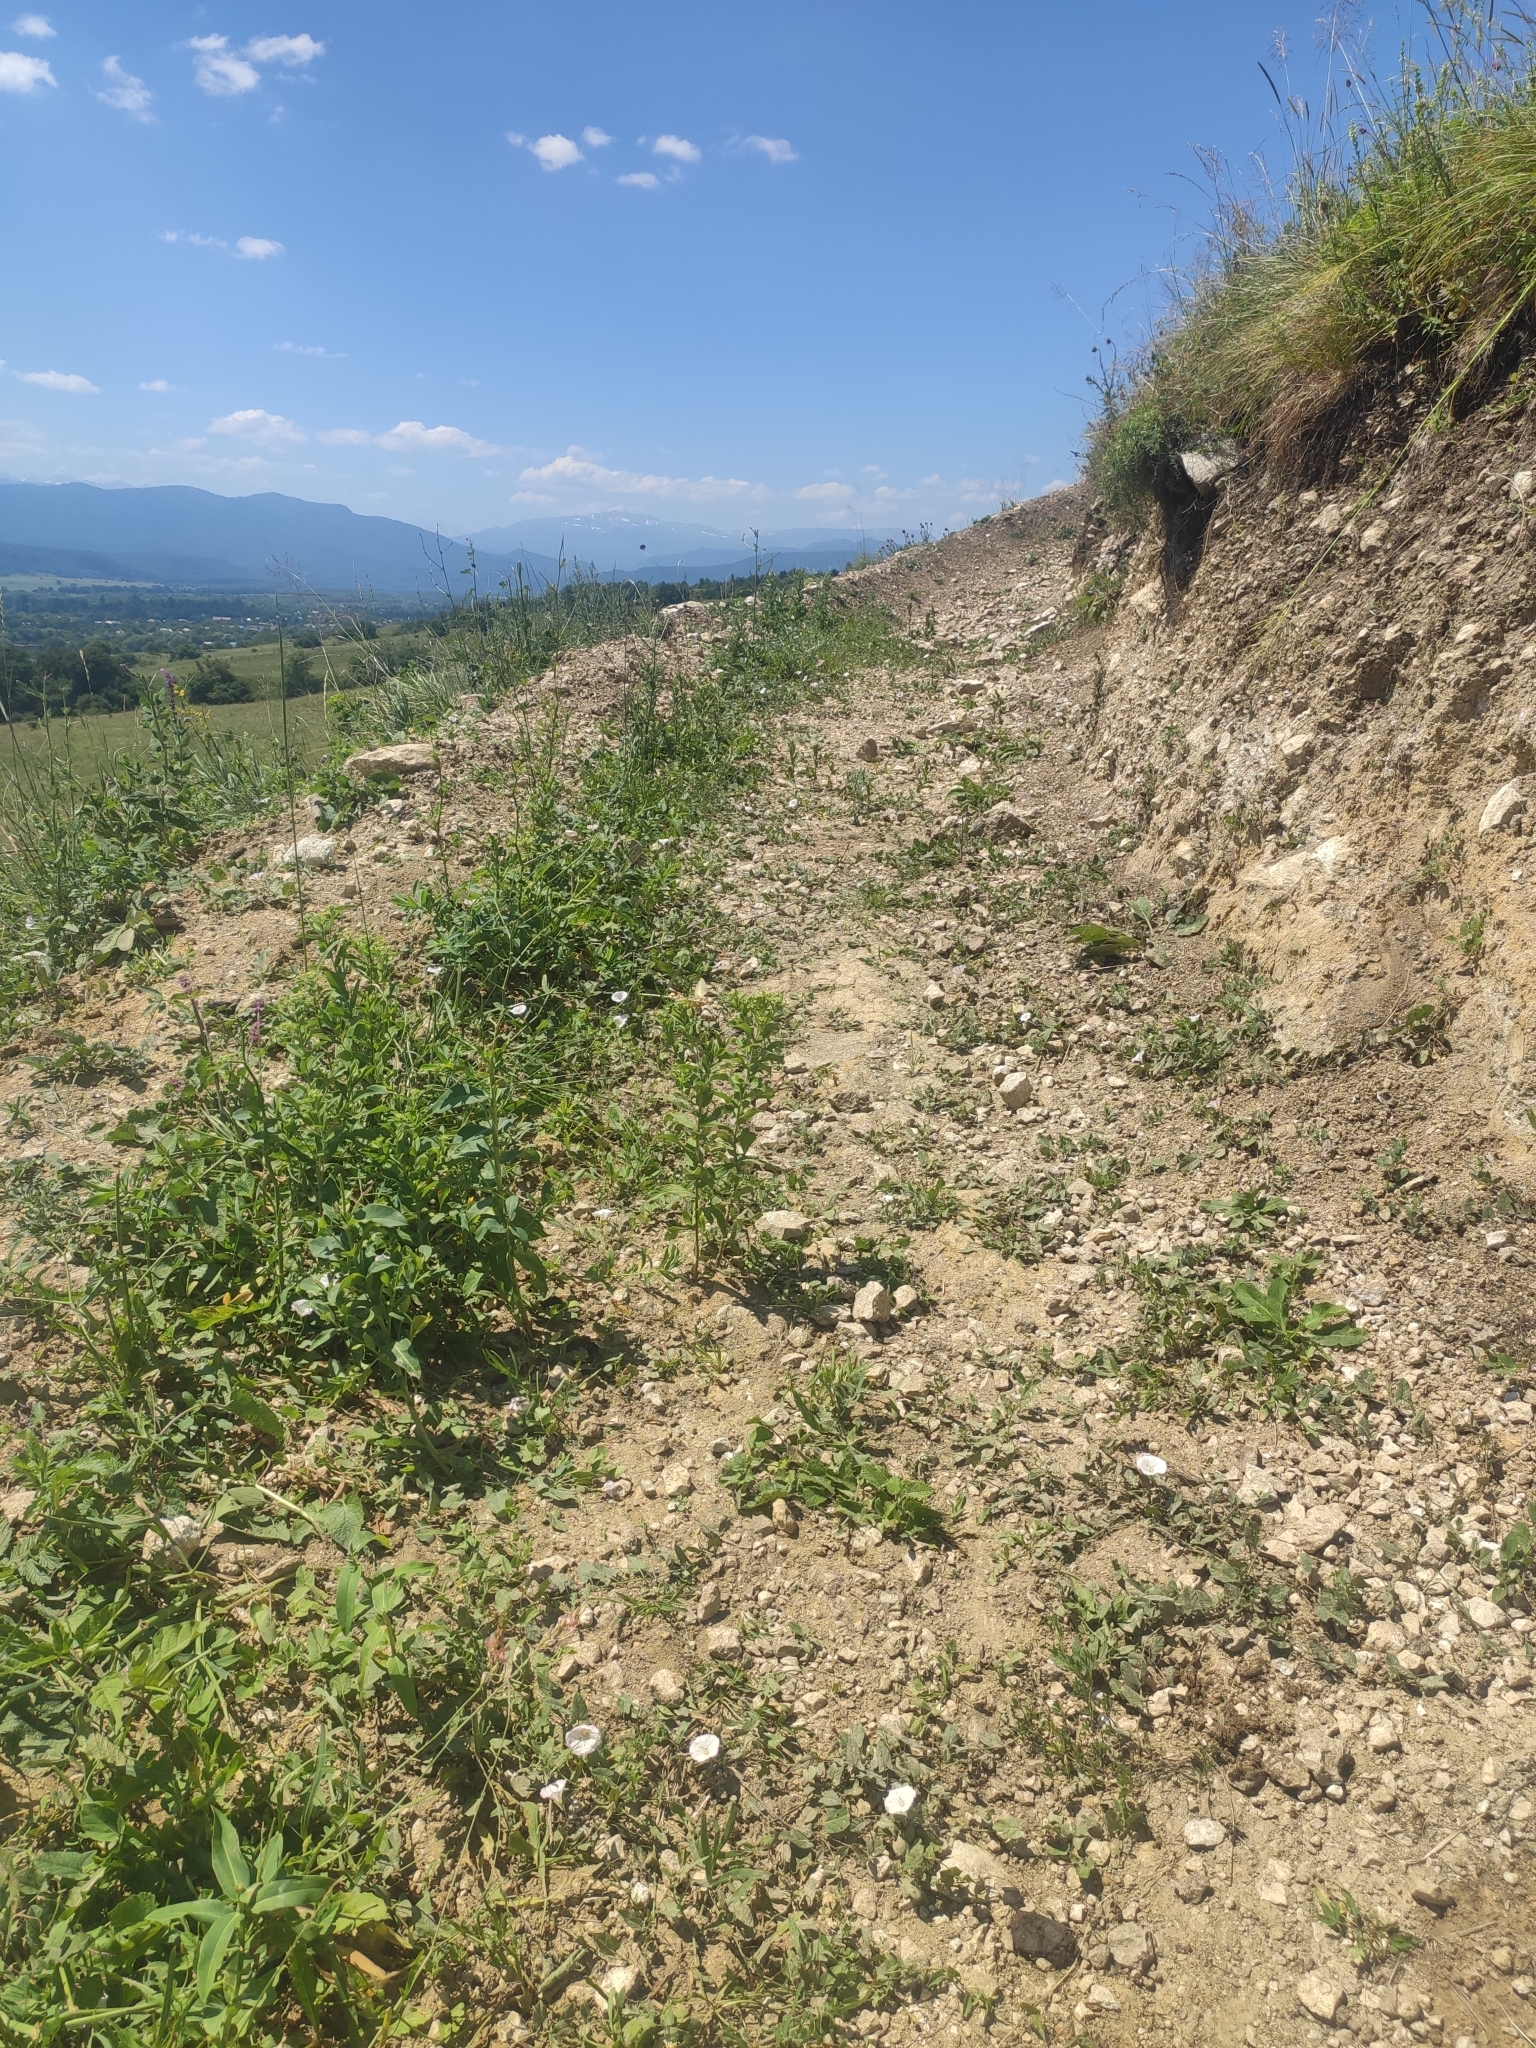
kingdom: Plantae
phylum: Tracheophyta
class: Magnoliopsida
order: Solanales
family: Convolvulaceae
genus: Convolvulus
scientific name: Convolvulus arvensis
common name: Field bindweed
